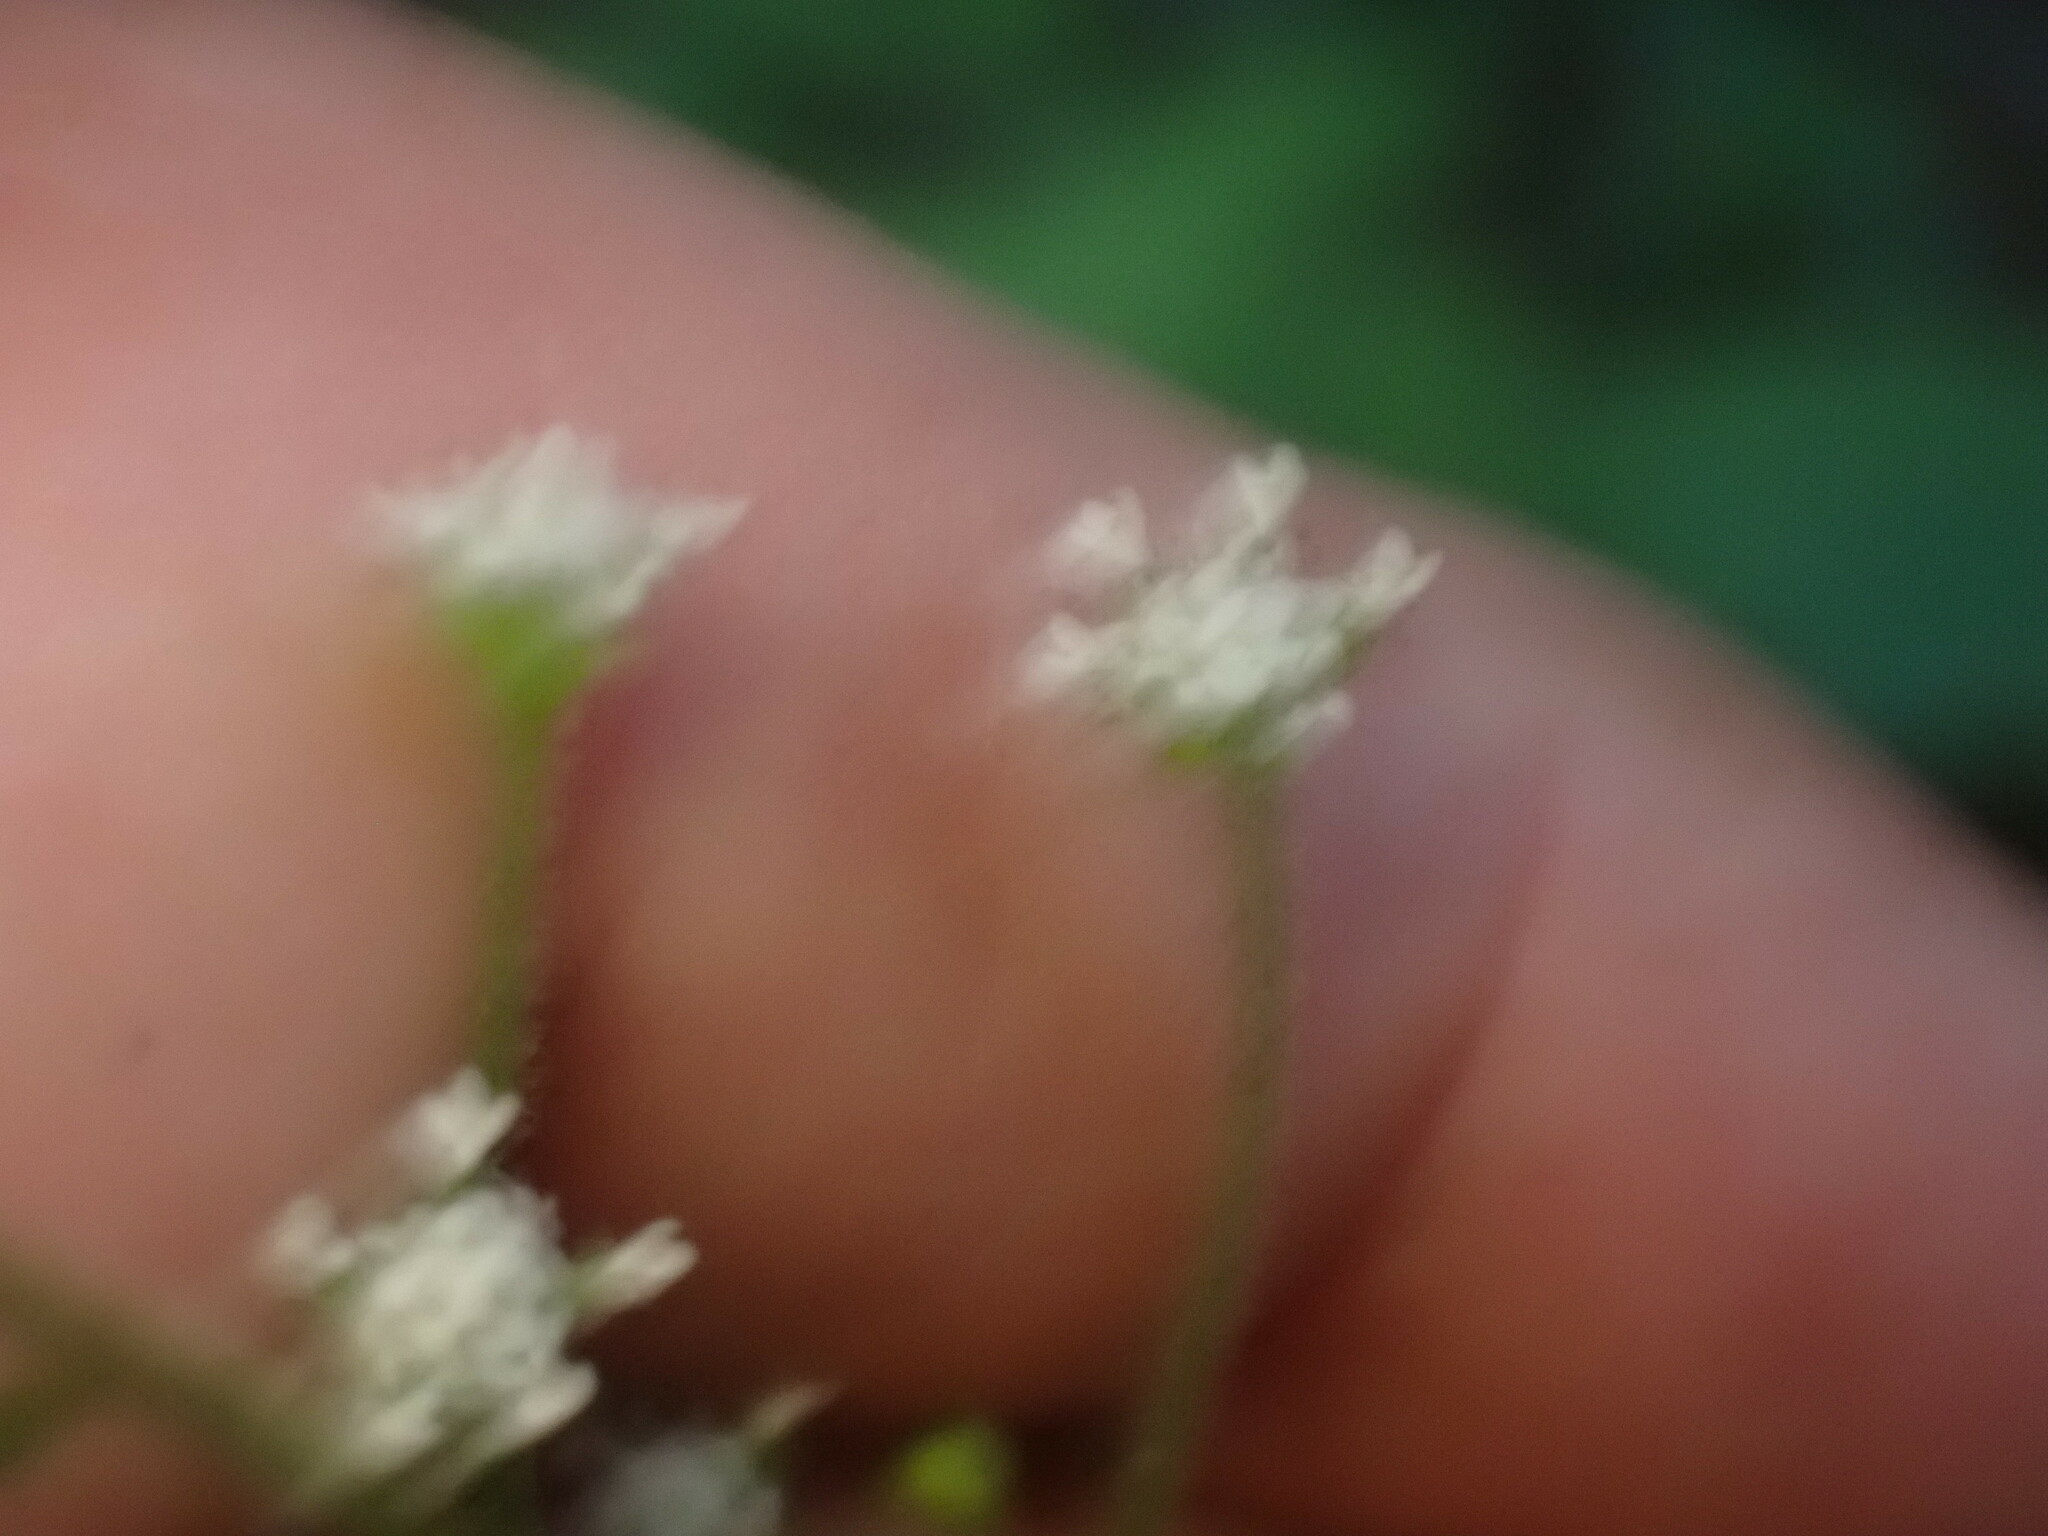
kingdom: Plantae
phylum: Tracheophyta
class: Magnoliopsida
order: Asterales
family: Asteraceae
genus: Adenocaulon
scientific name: Adenocaulon bicolor
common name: Trailplant
